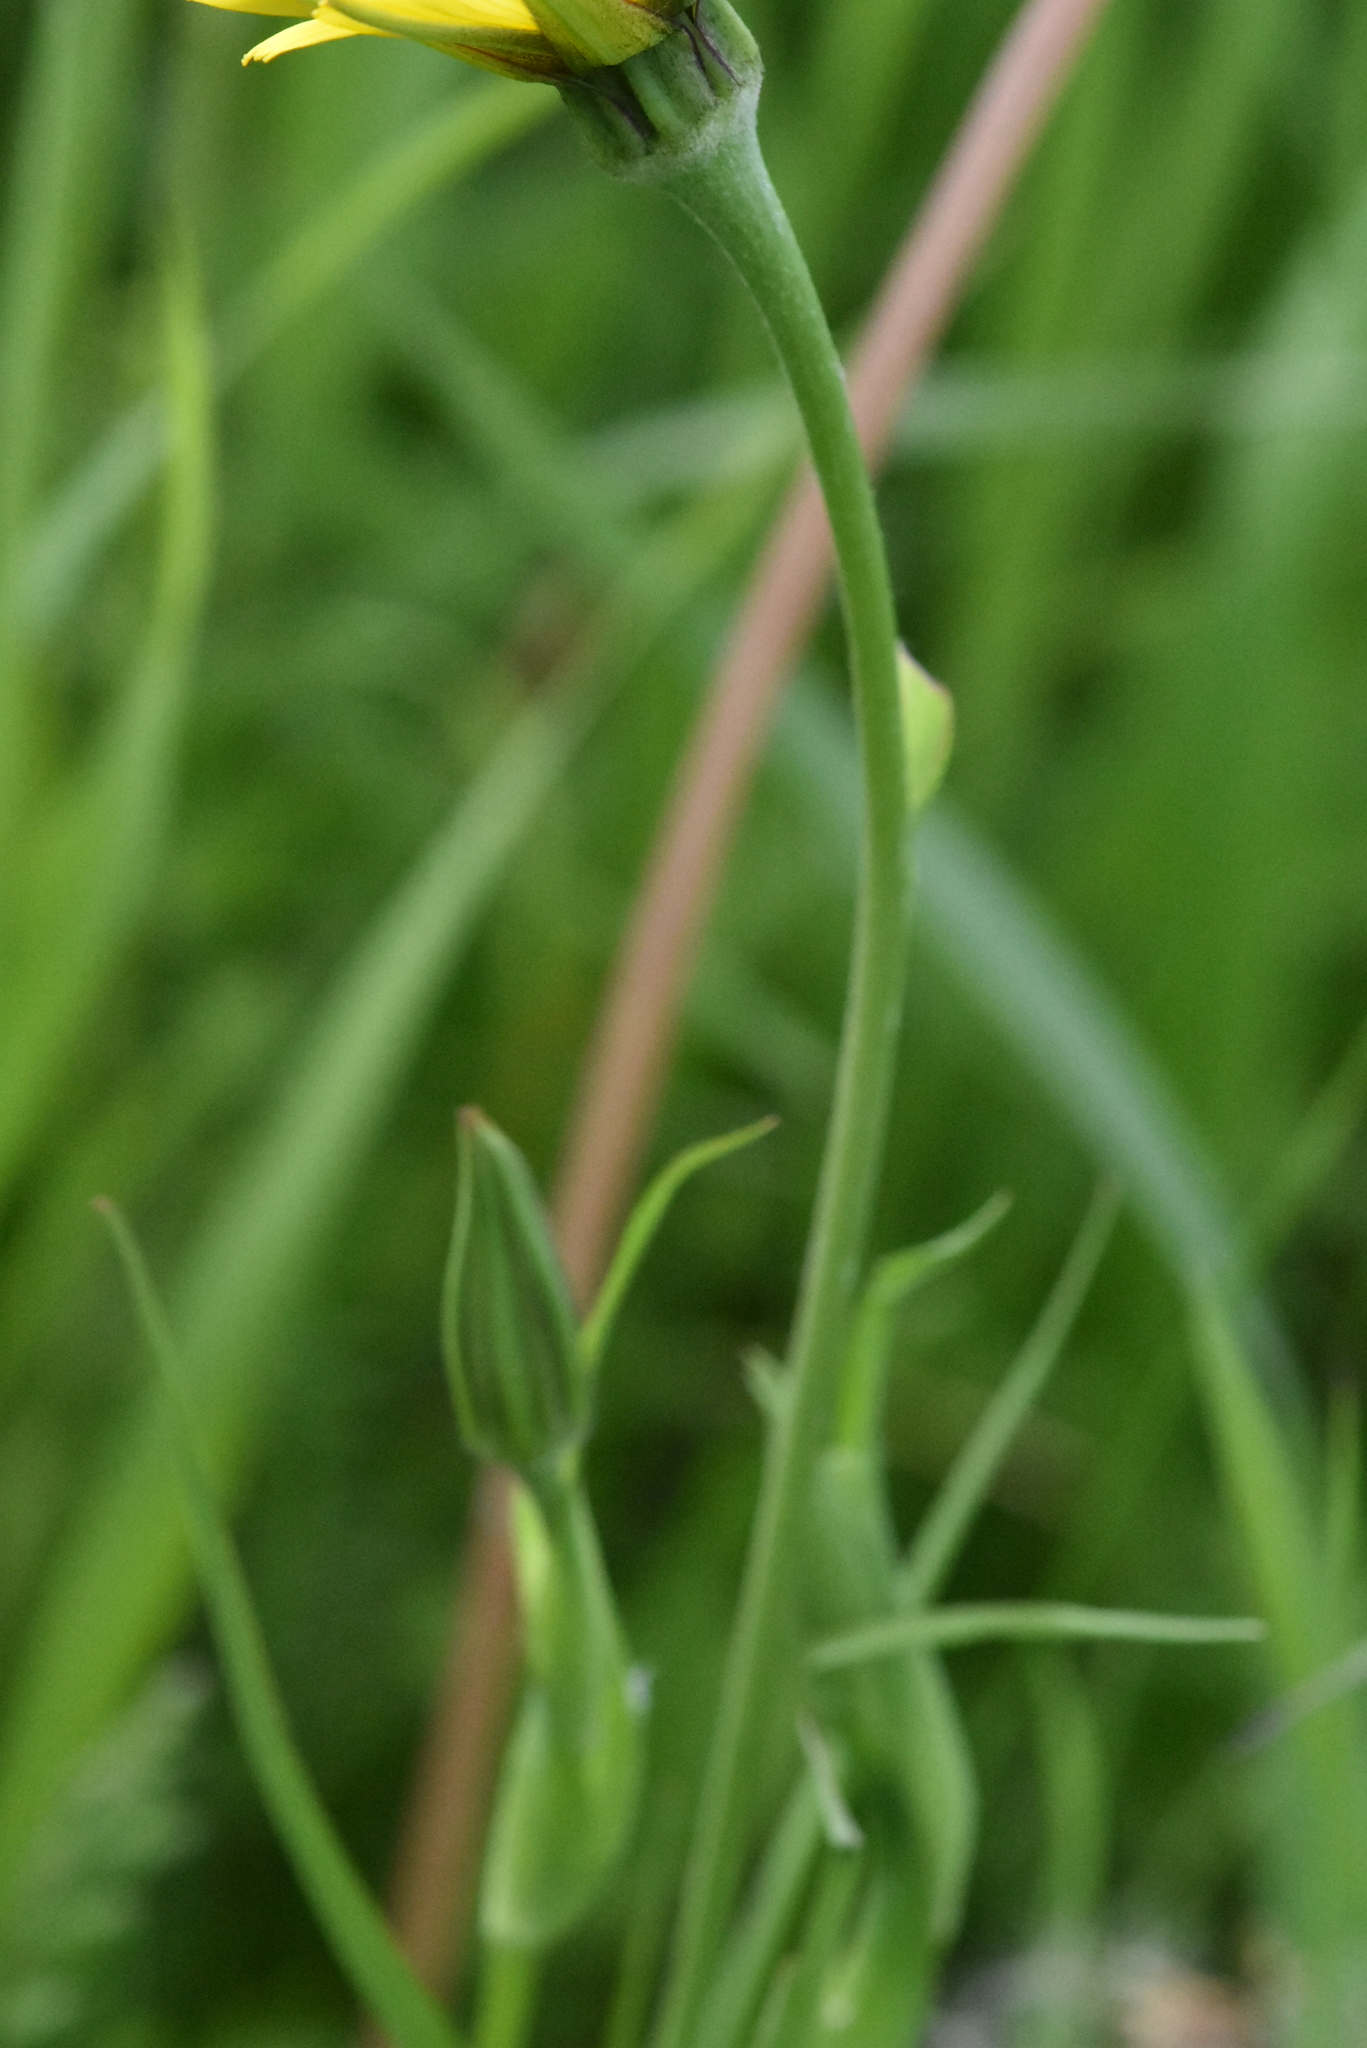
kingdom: Plantae
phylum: Tracheophyta
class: Magnoliopsida
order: Asterales
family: Asteraceae
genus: Tragopogon
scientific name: Tragopogon pratensis
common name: Goat's-beard
